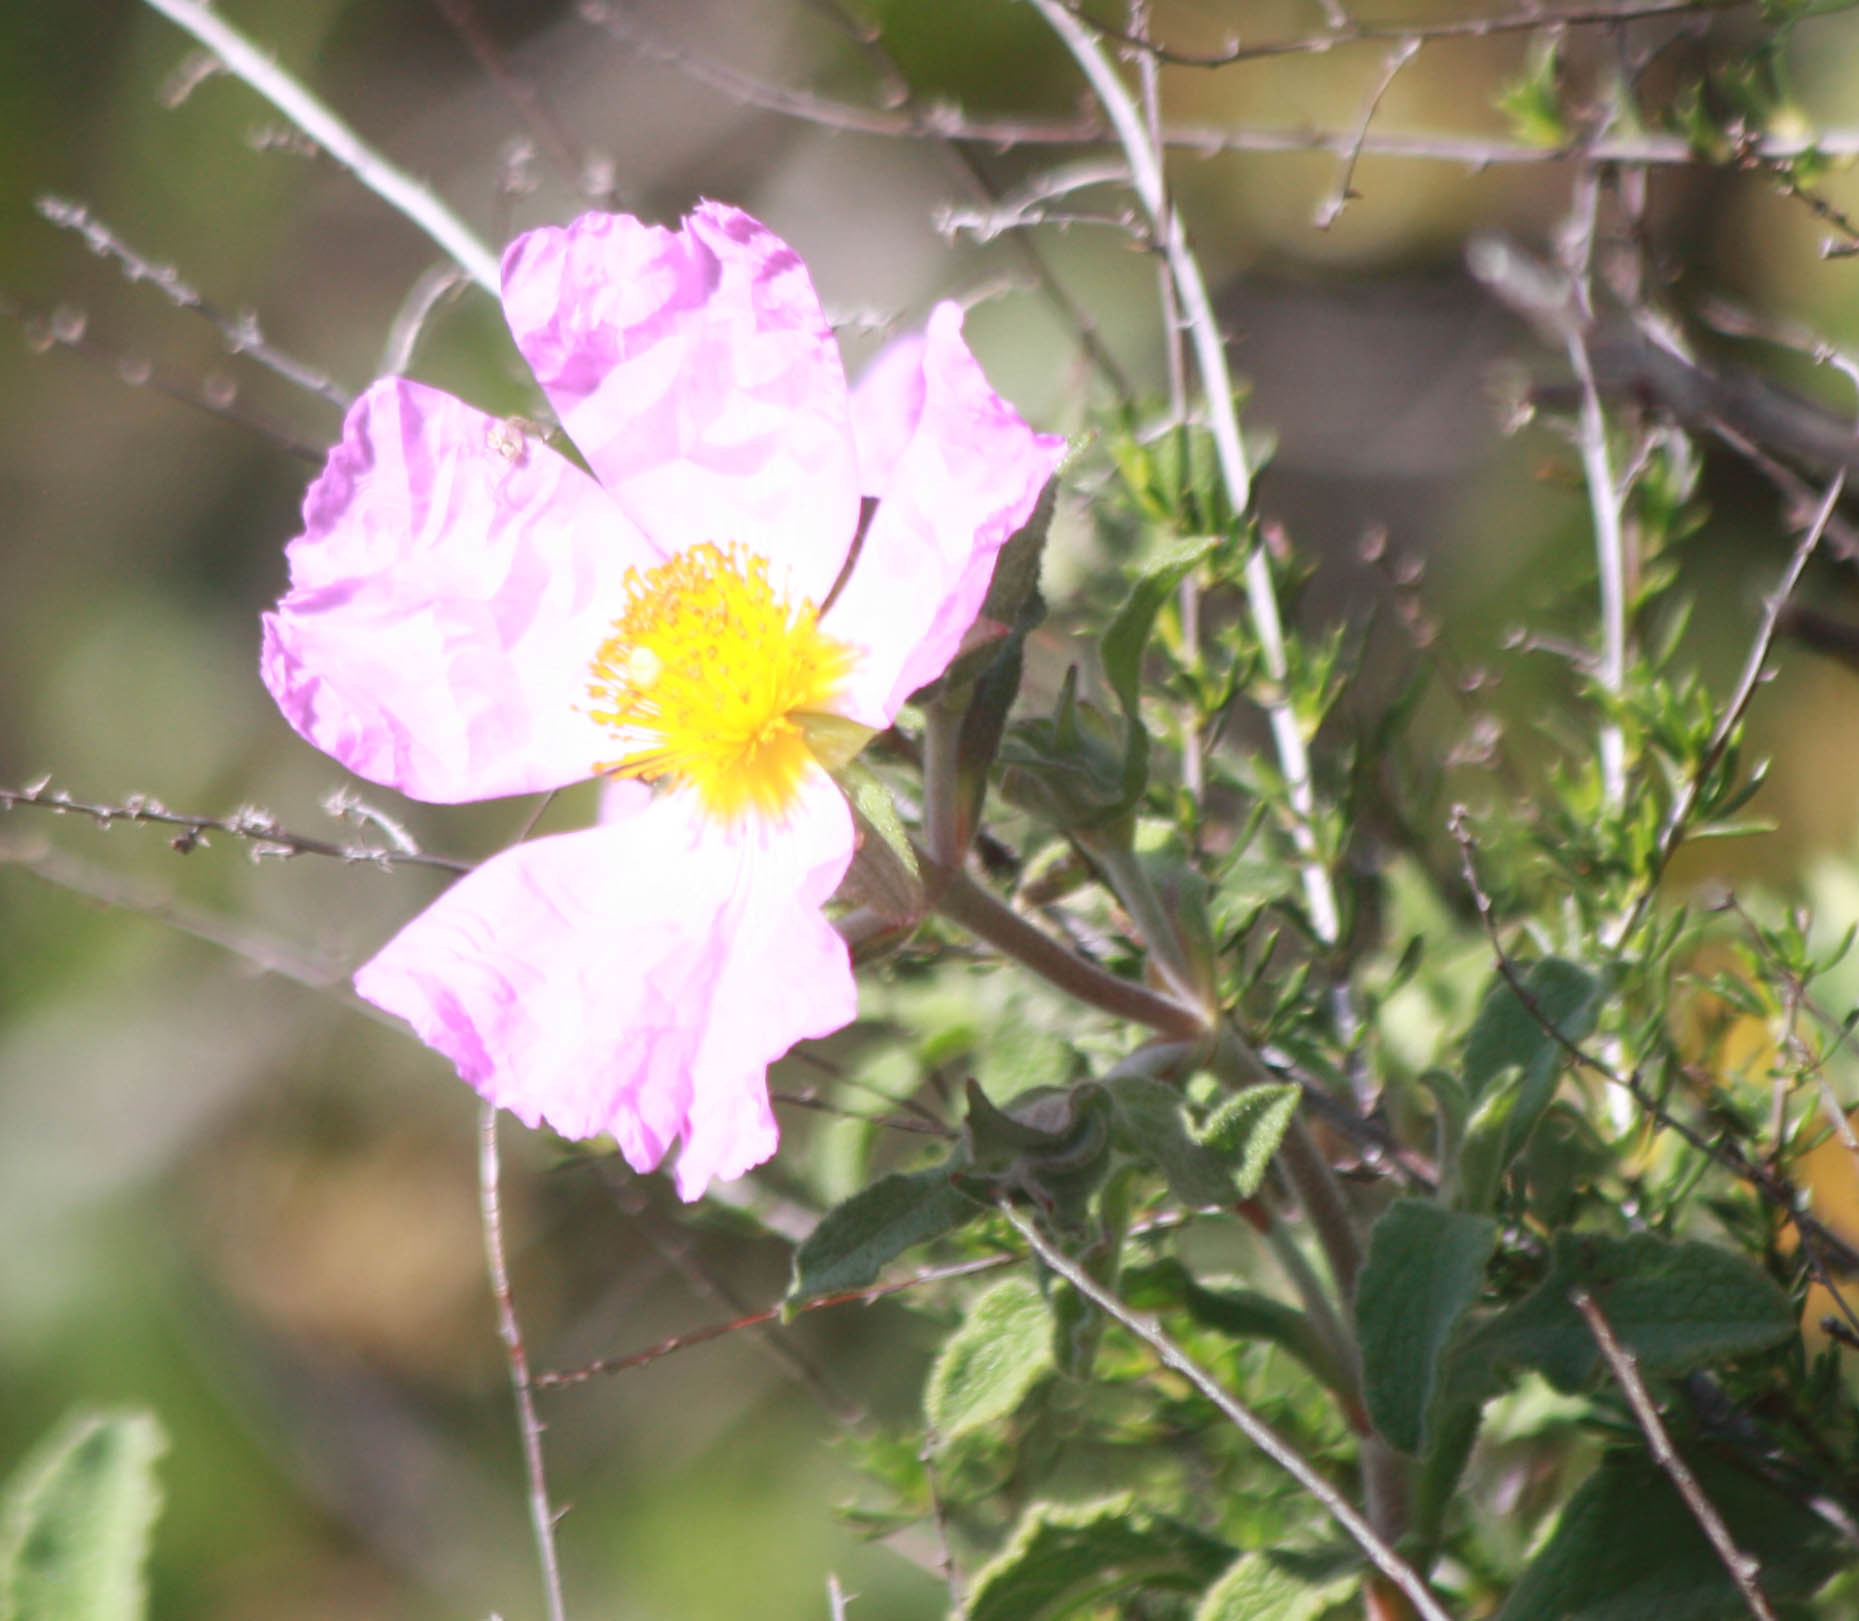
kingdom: Plantae
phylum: Tracheophyta
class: Magnoliopsida
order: Malvales
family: Cistaceae
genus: Cistus
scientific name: Cistus tauricus
